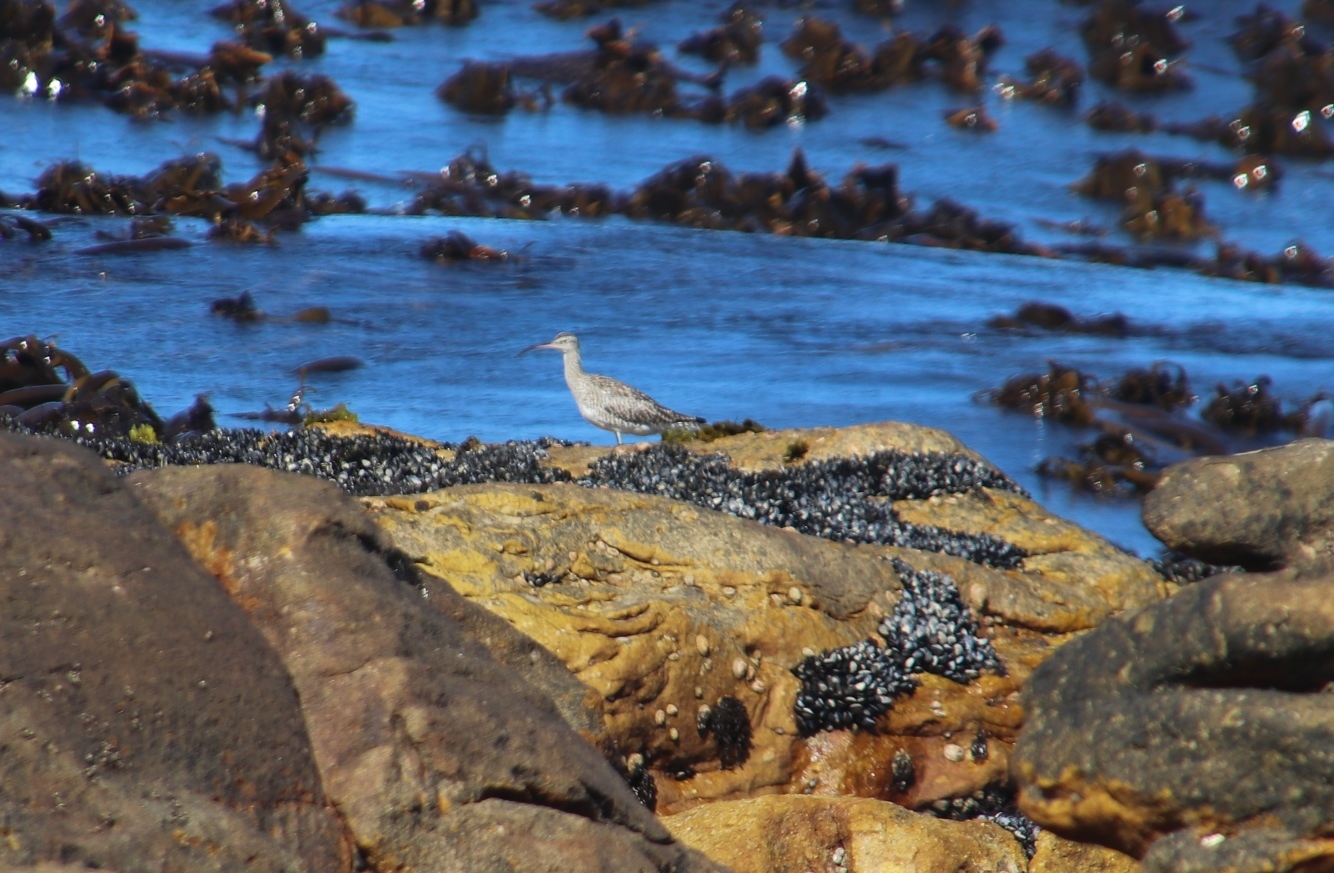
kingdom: Animalia
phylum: Chordata
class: Aves
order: Charadriiformes
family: Scolopacidae
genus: Numenius
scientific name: Numenius phaeopus
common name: Whimbrel
